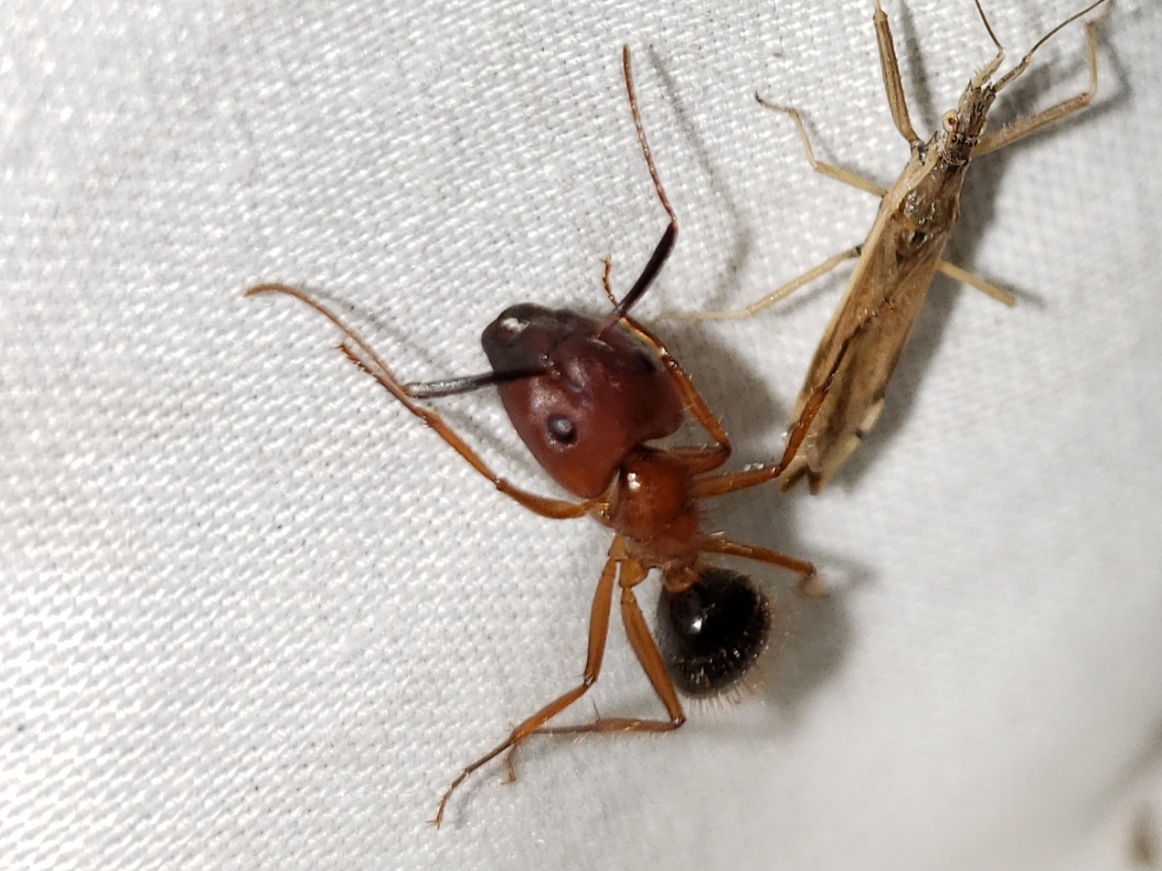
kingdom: Animalia
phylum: Arthropoda
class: Insecta
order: Hymenoptera
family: Formicidae
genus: Camponotus
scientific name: Camponotus floridanus
